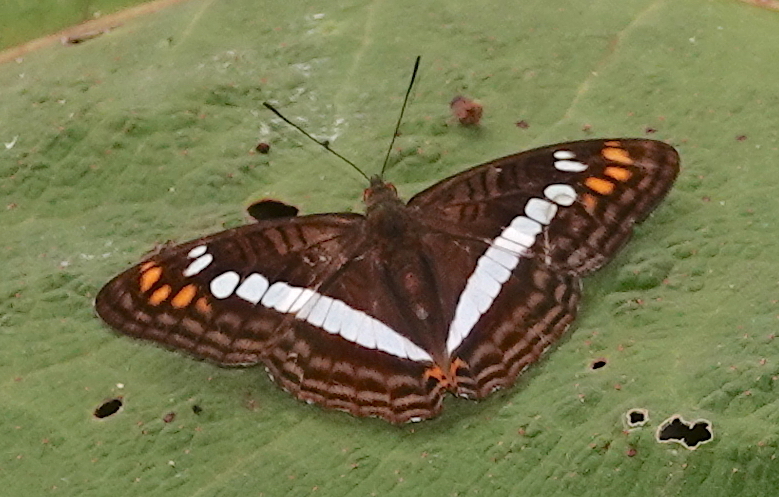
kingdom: Animalia
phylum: Arthropoda
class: Insecta
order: Lepidoptera
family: Nymphalidae
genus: Limenitis
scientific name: Limenitis alala
